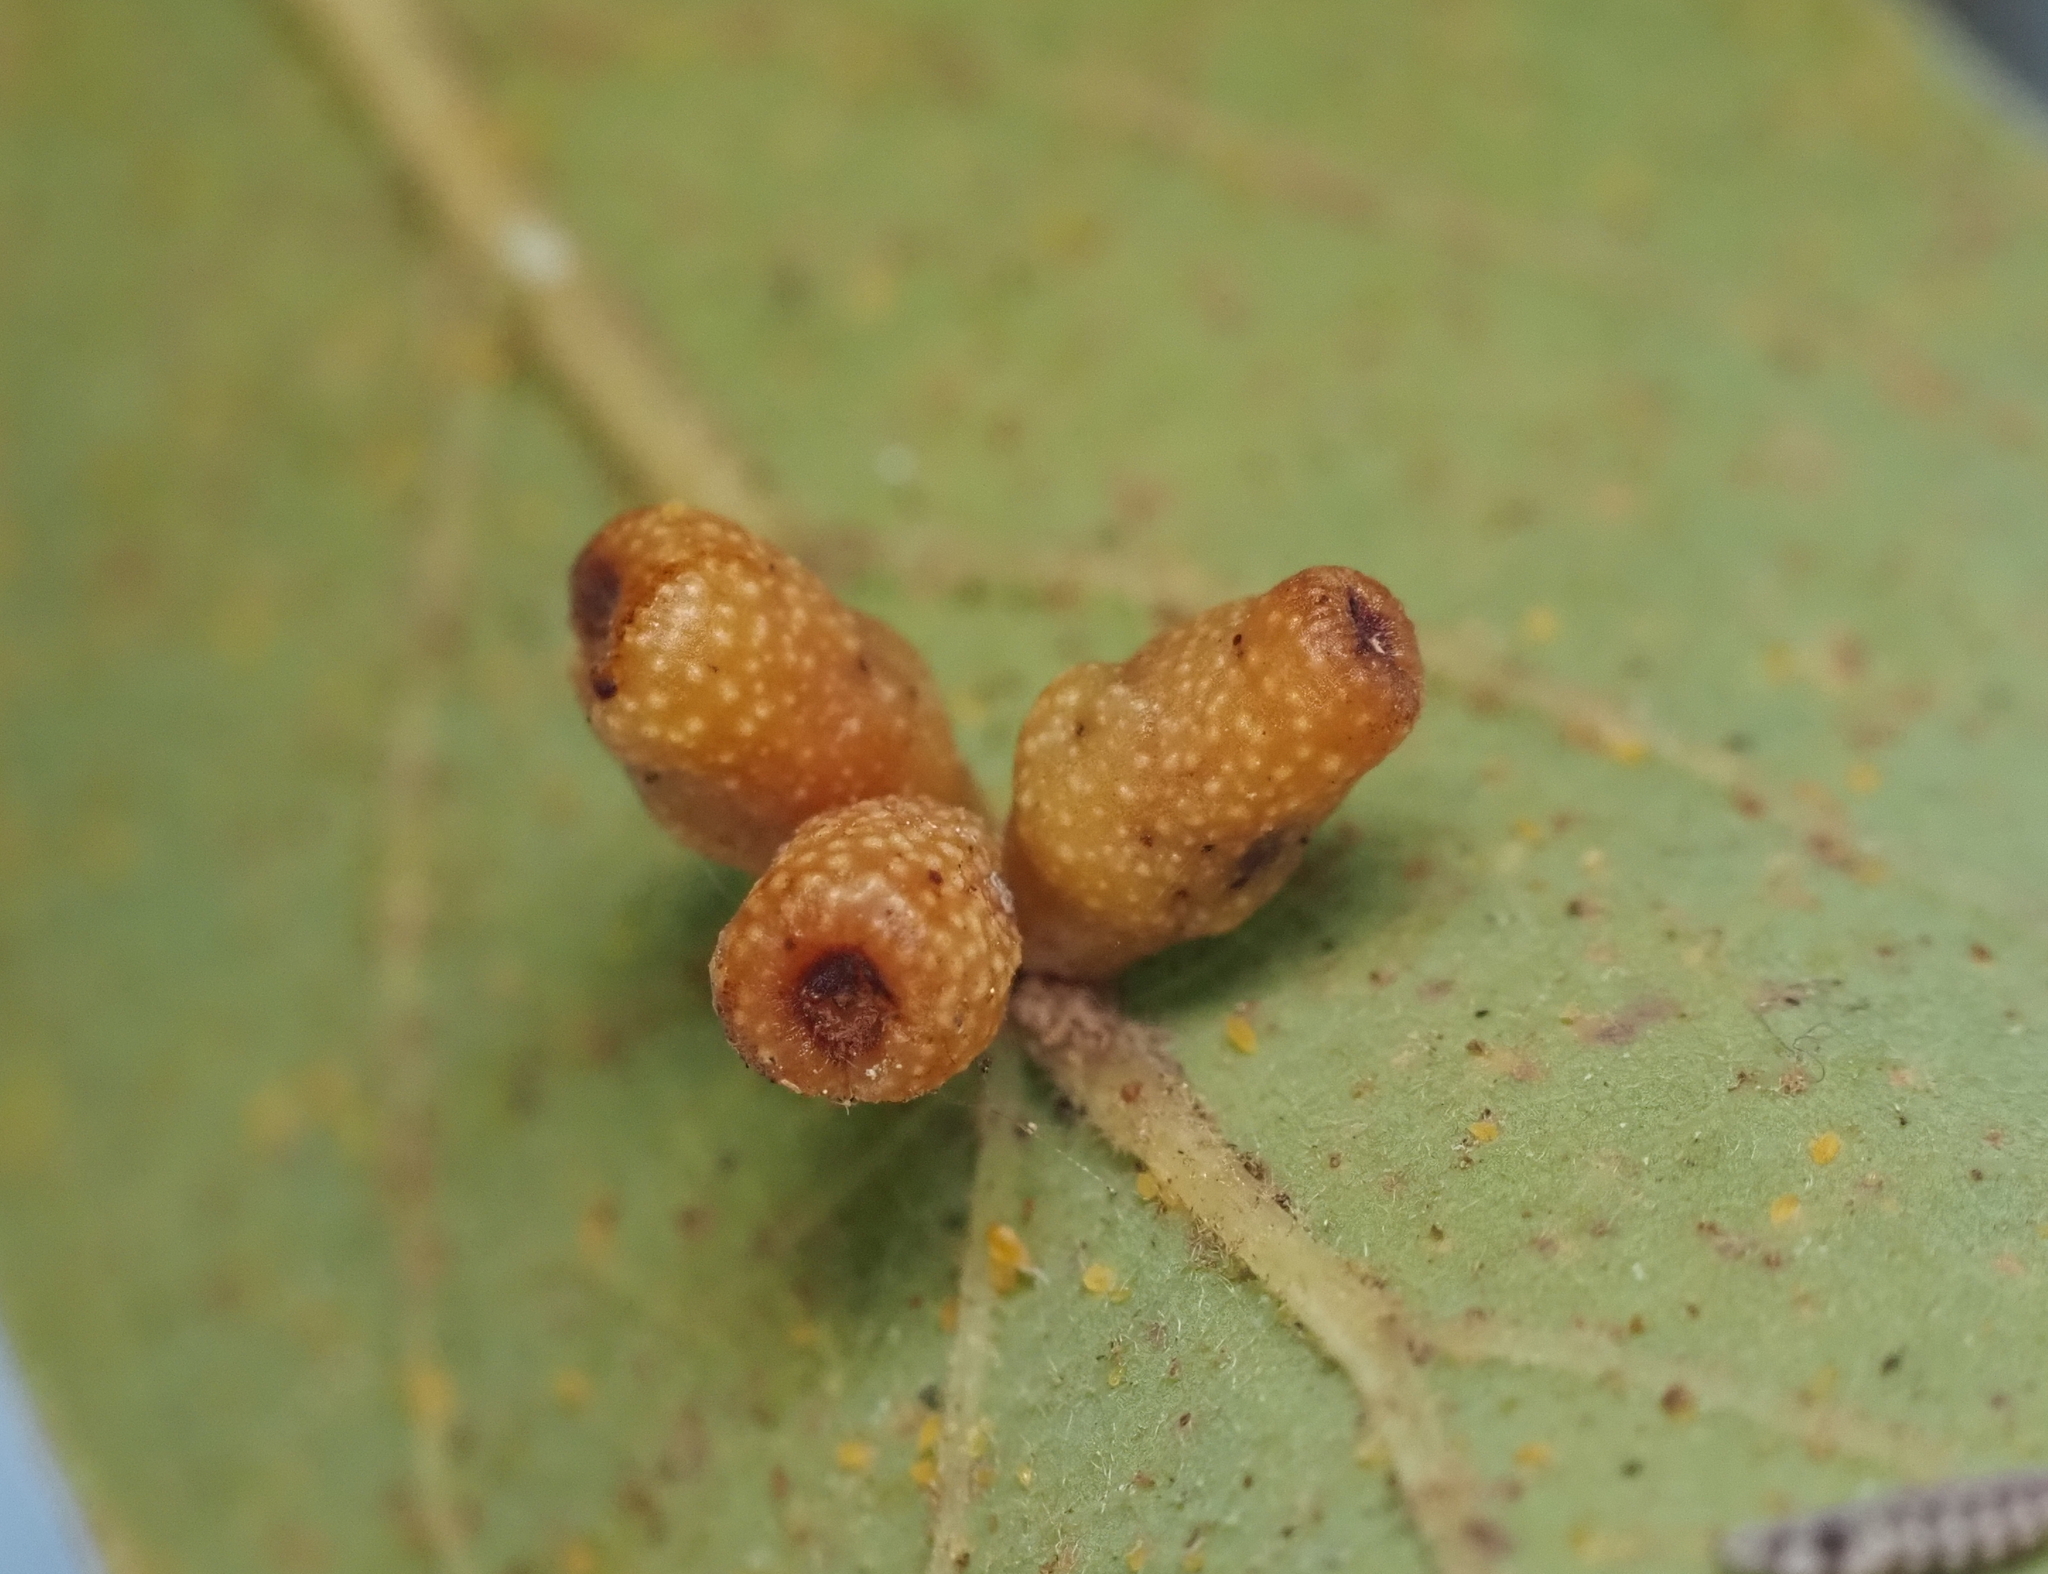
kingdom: Animalia
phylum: Arthropoda
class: Insecta
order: Hymenoptera
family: Cynipidae
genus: Andricus
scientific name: Andricus lustrans
